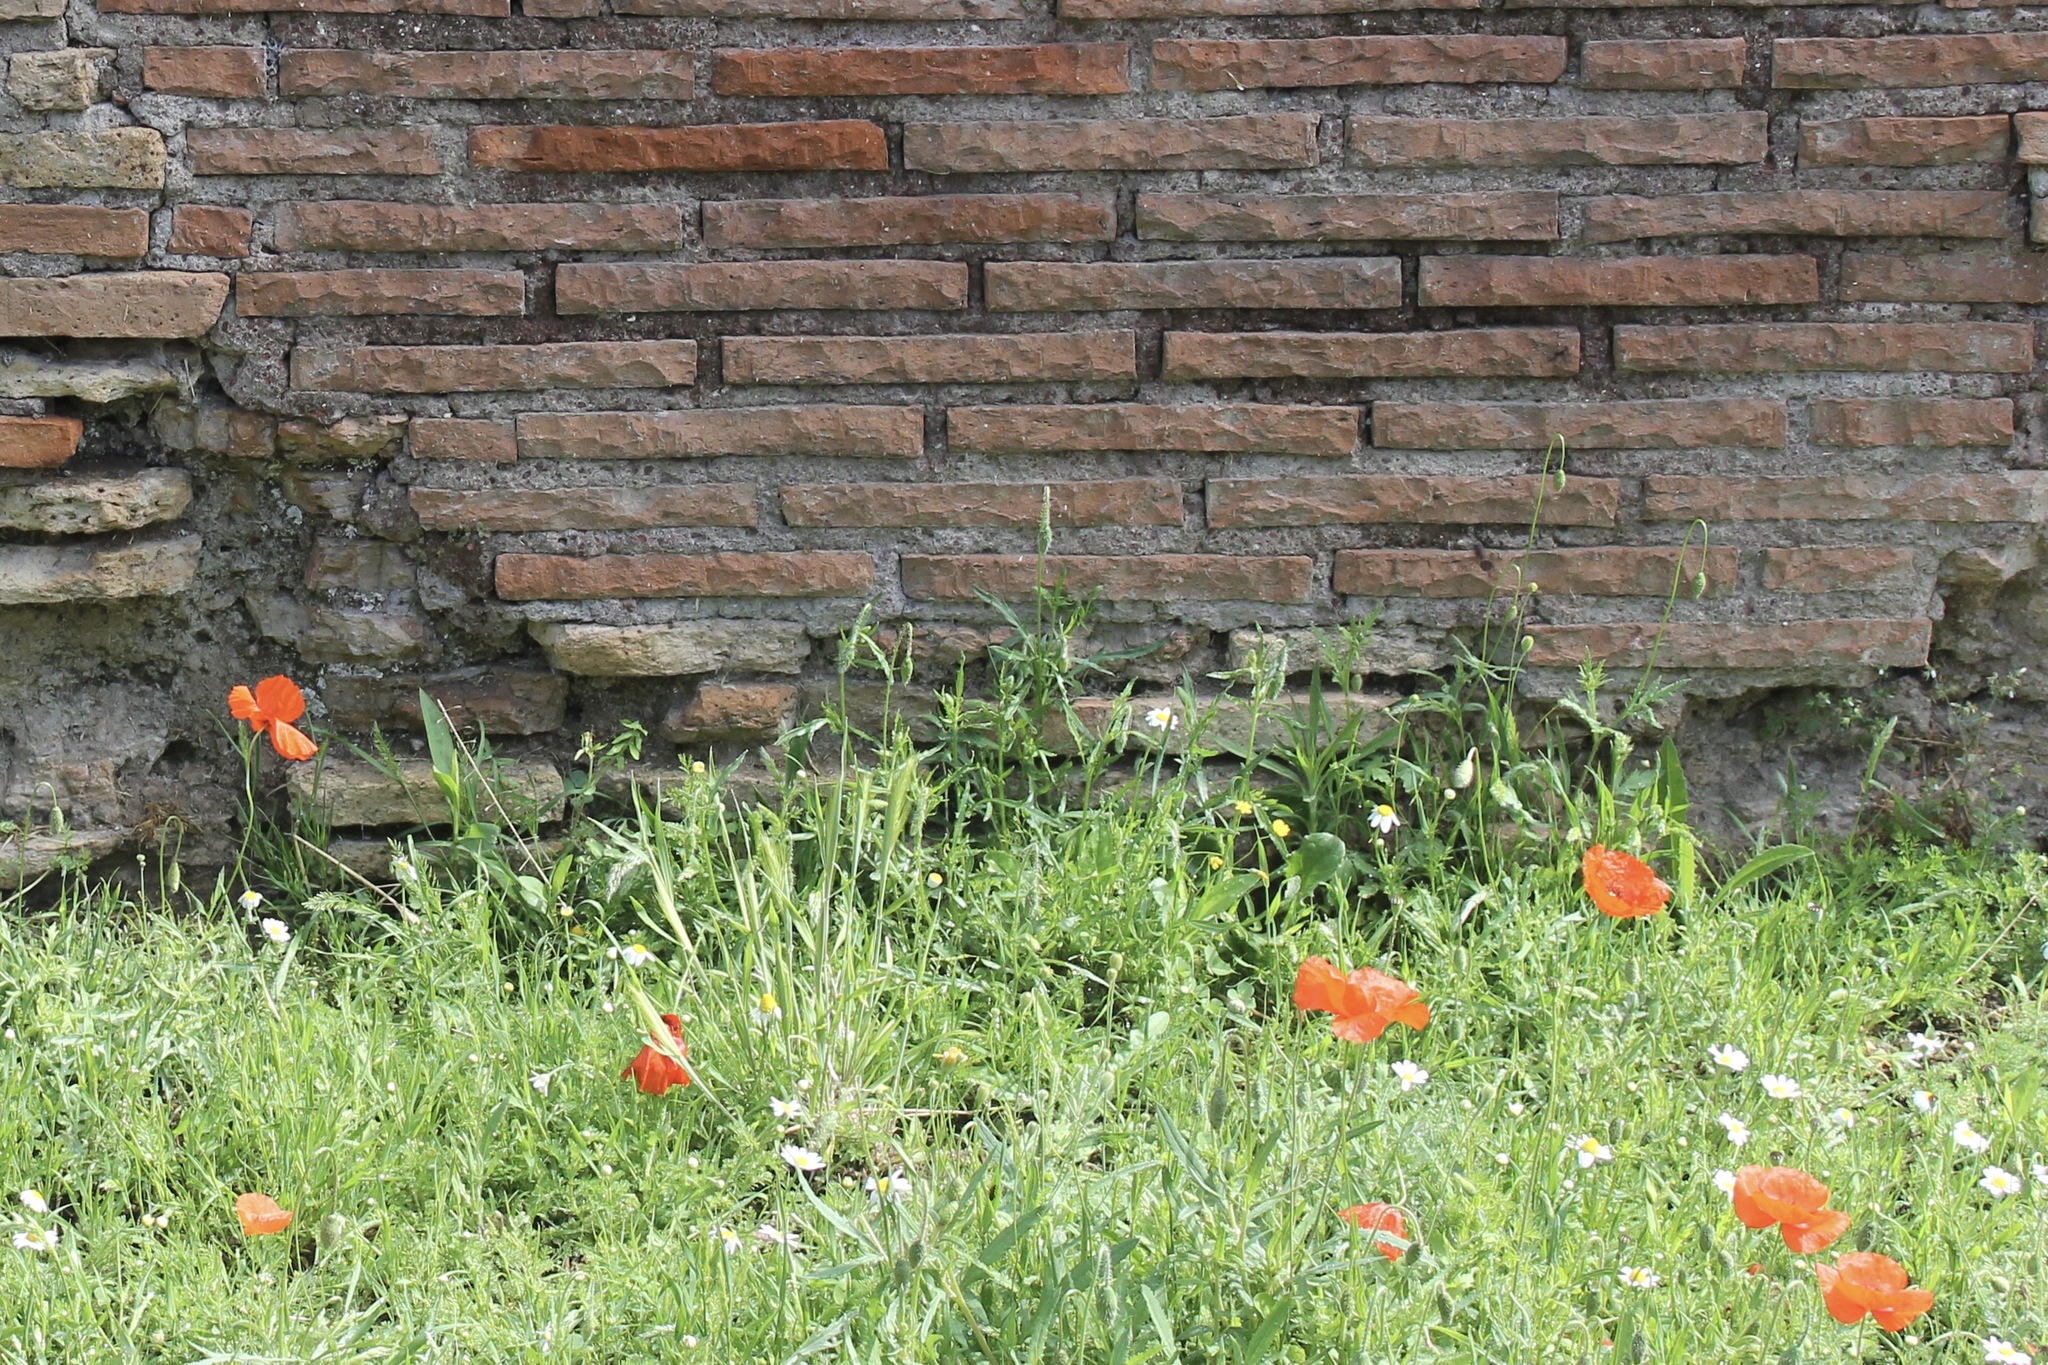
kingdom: Plantae
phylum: Tracheophyta
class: Magnoliopsida
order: Ranunculales
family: Papaveraceae
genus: Papaver
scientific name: Papaver rhoeas
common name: Corn poppy
